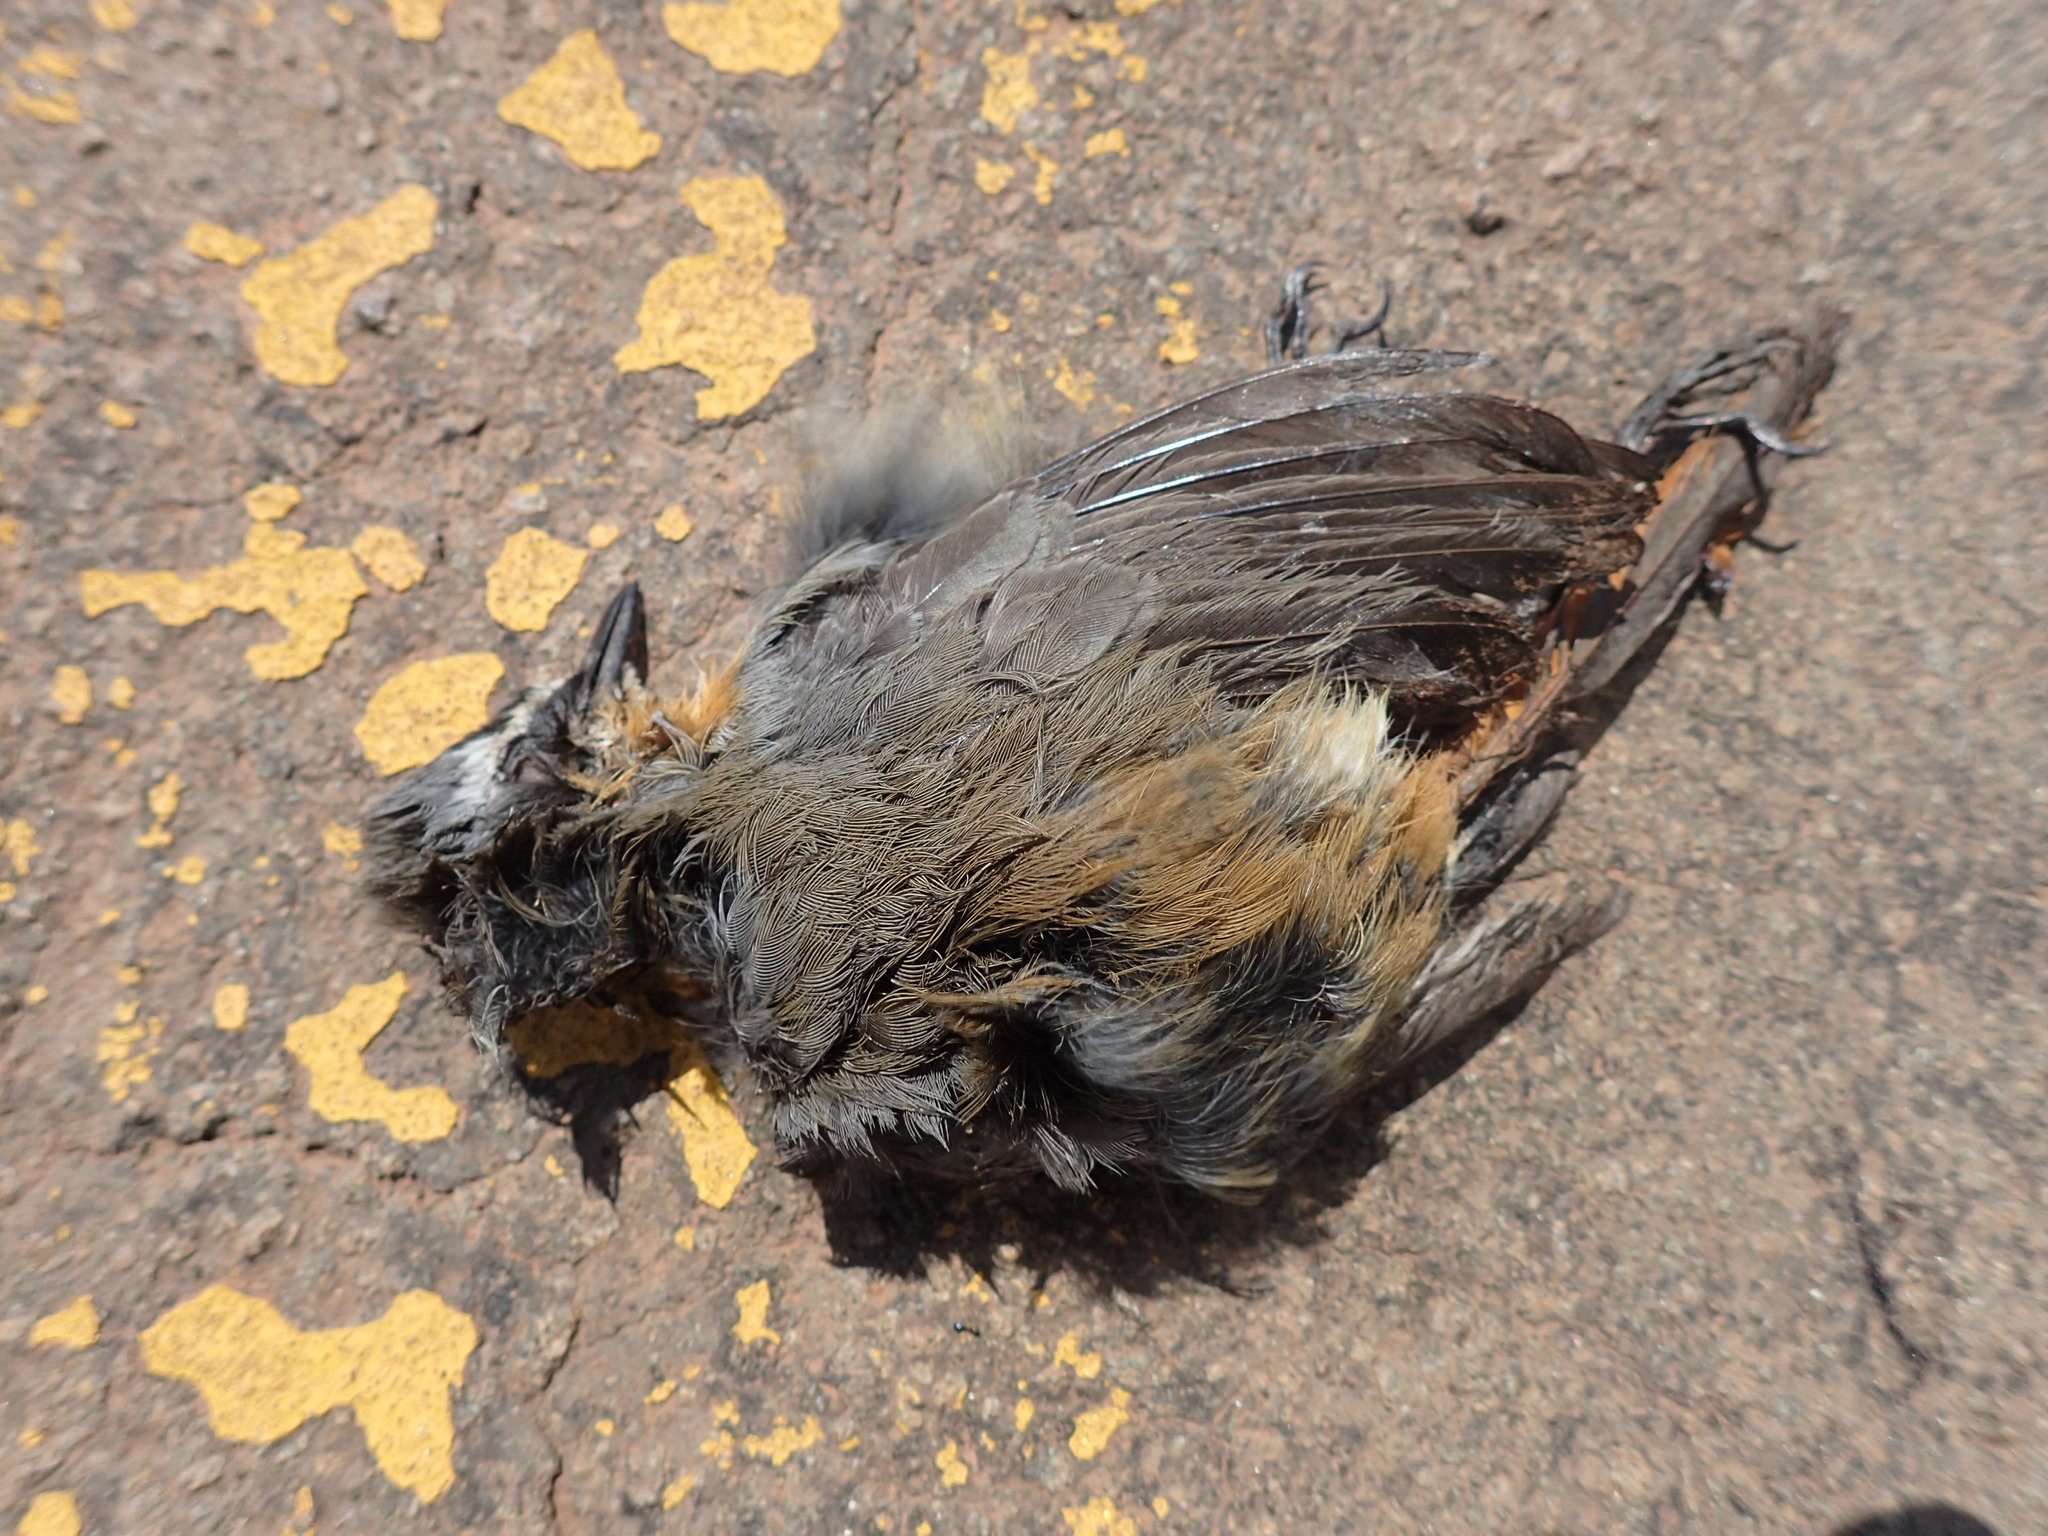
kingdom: Animalia
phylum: Chordata
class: Aves
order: Passeriformes
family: Muscicapidae
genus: Cossypha
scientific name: Cossypha caffra
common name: Cape robin-chat
